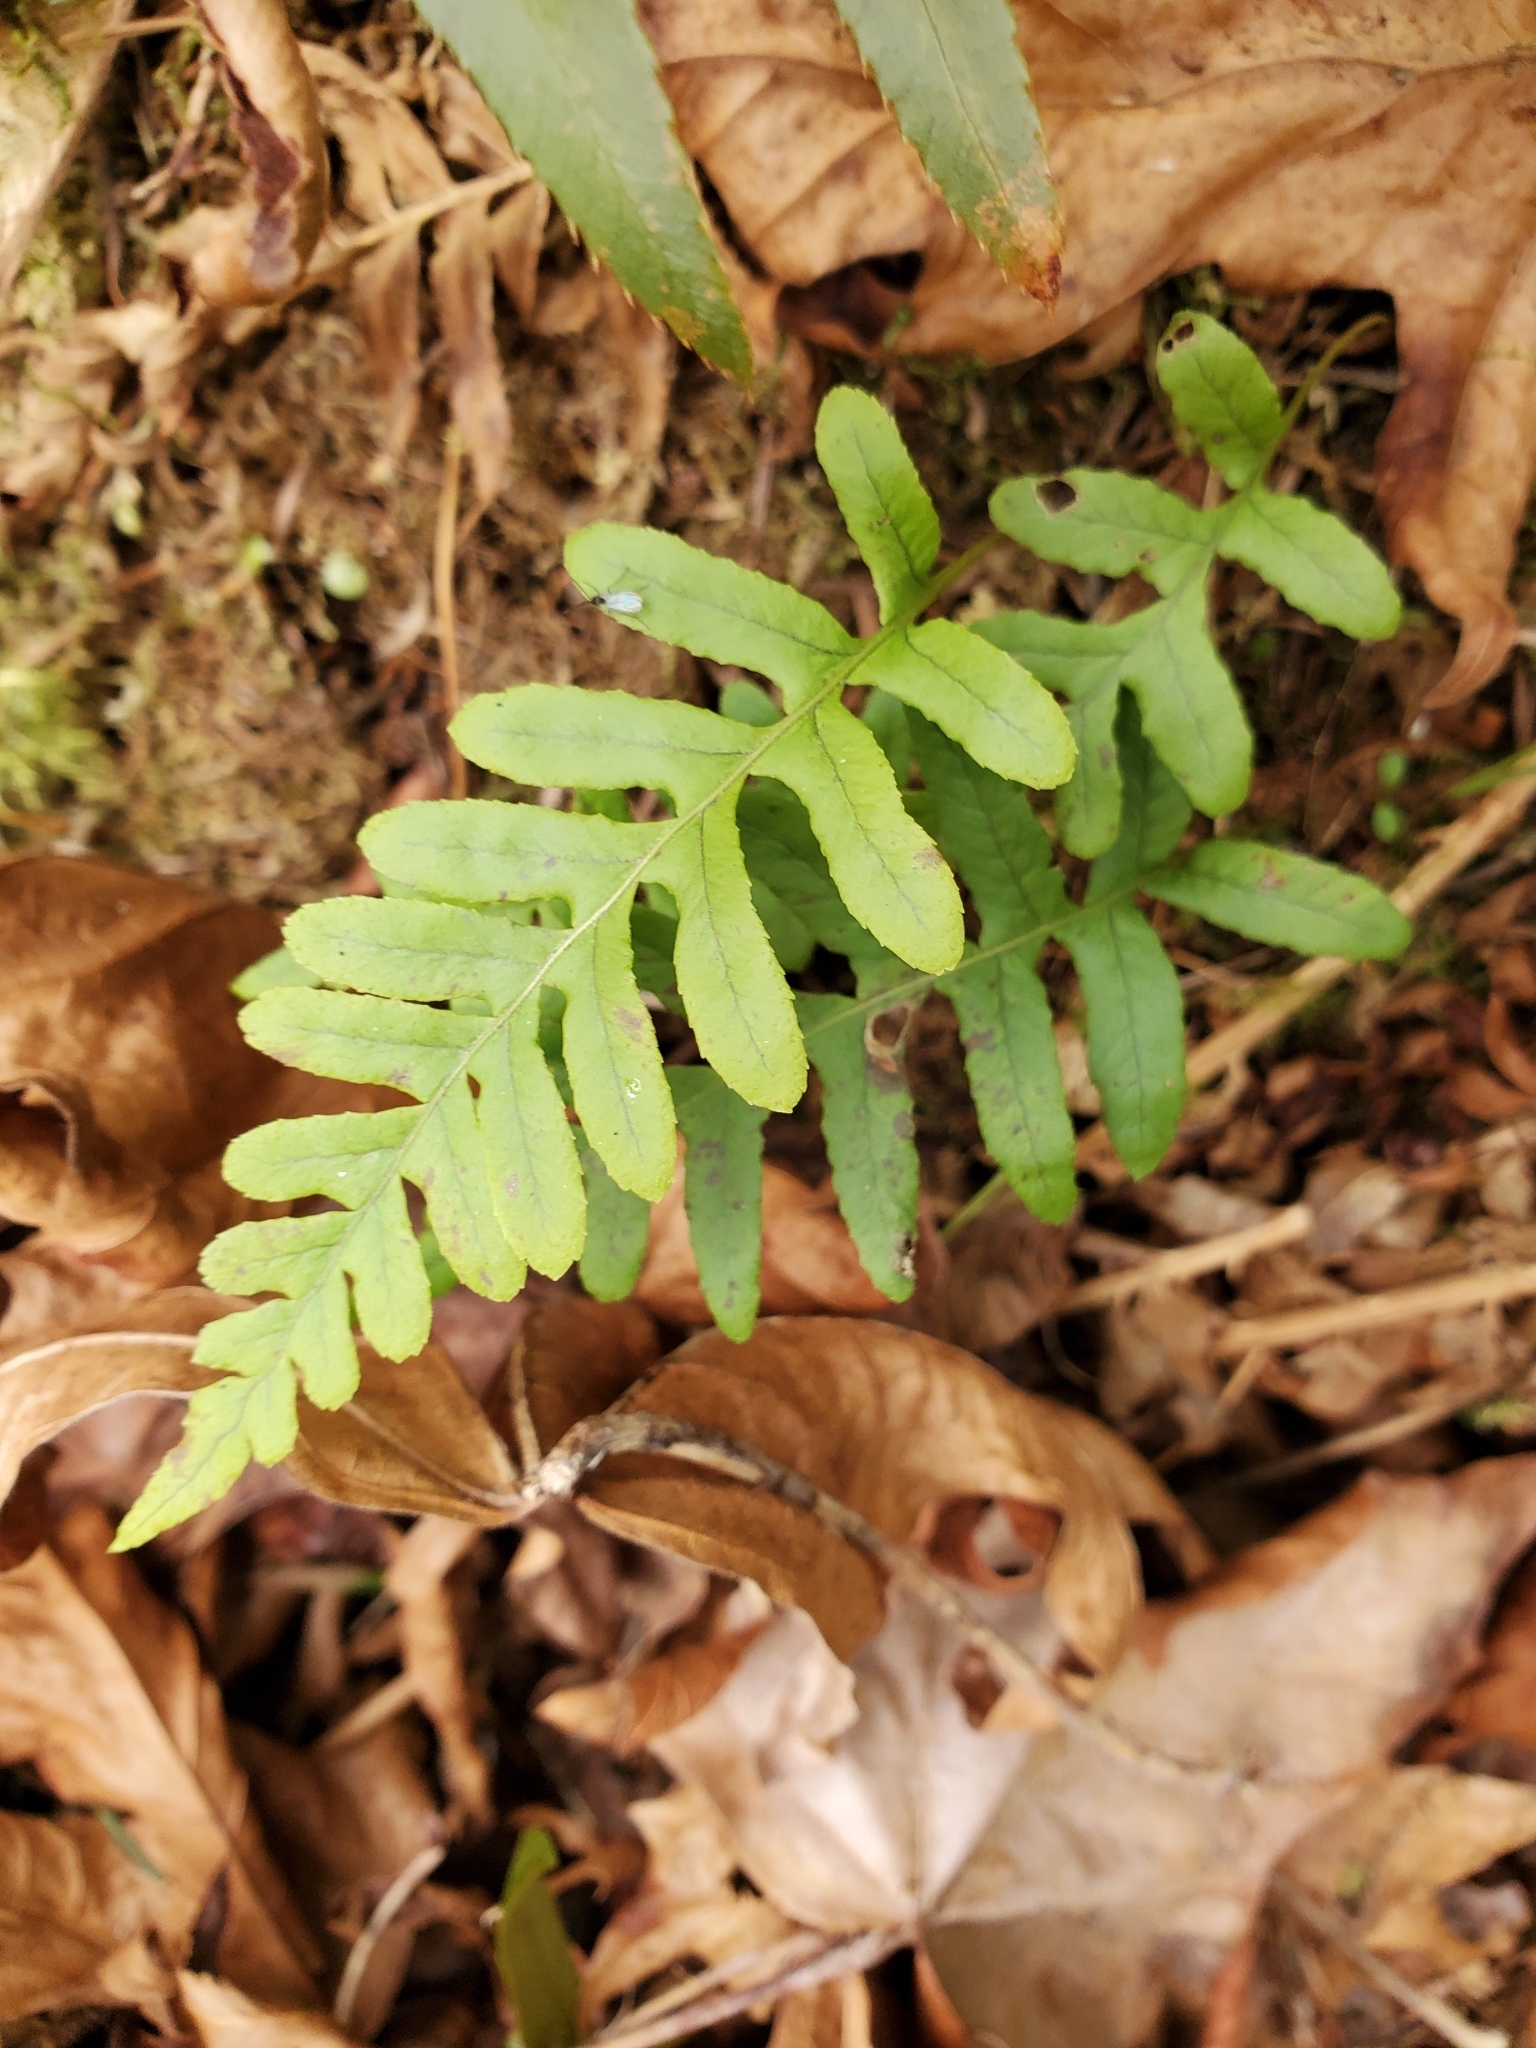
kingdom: Plantae
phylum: Tracheophyta
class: Polypodiopsida
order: Polypodiales
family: Polypodiaceae
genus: Polypodium
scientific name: Polypodium glycyrrhiza
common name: Licorice fern
